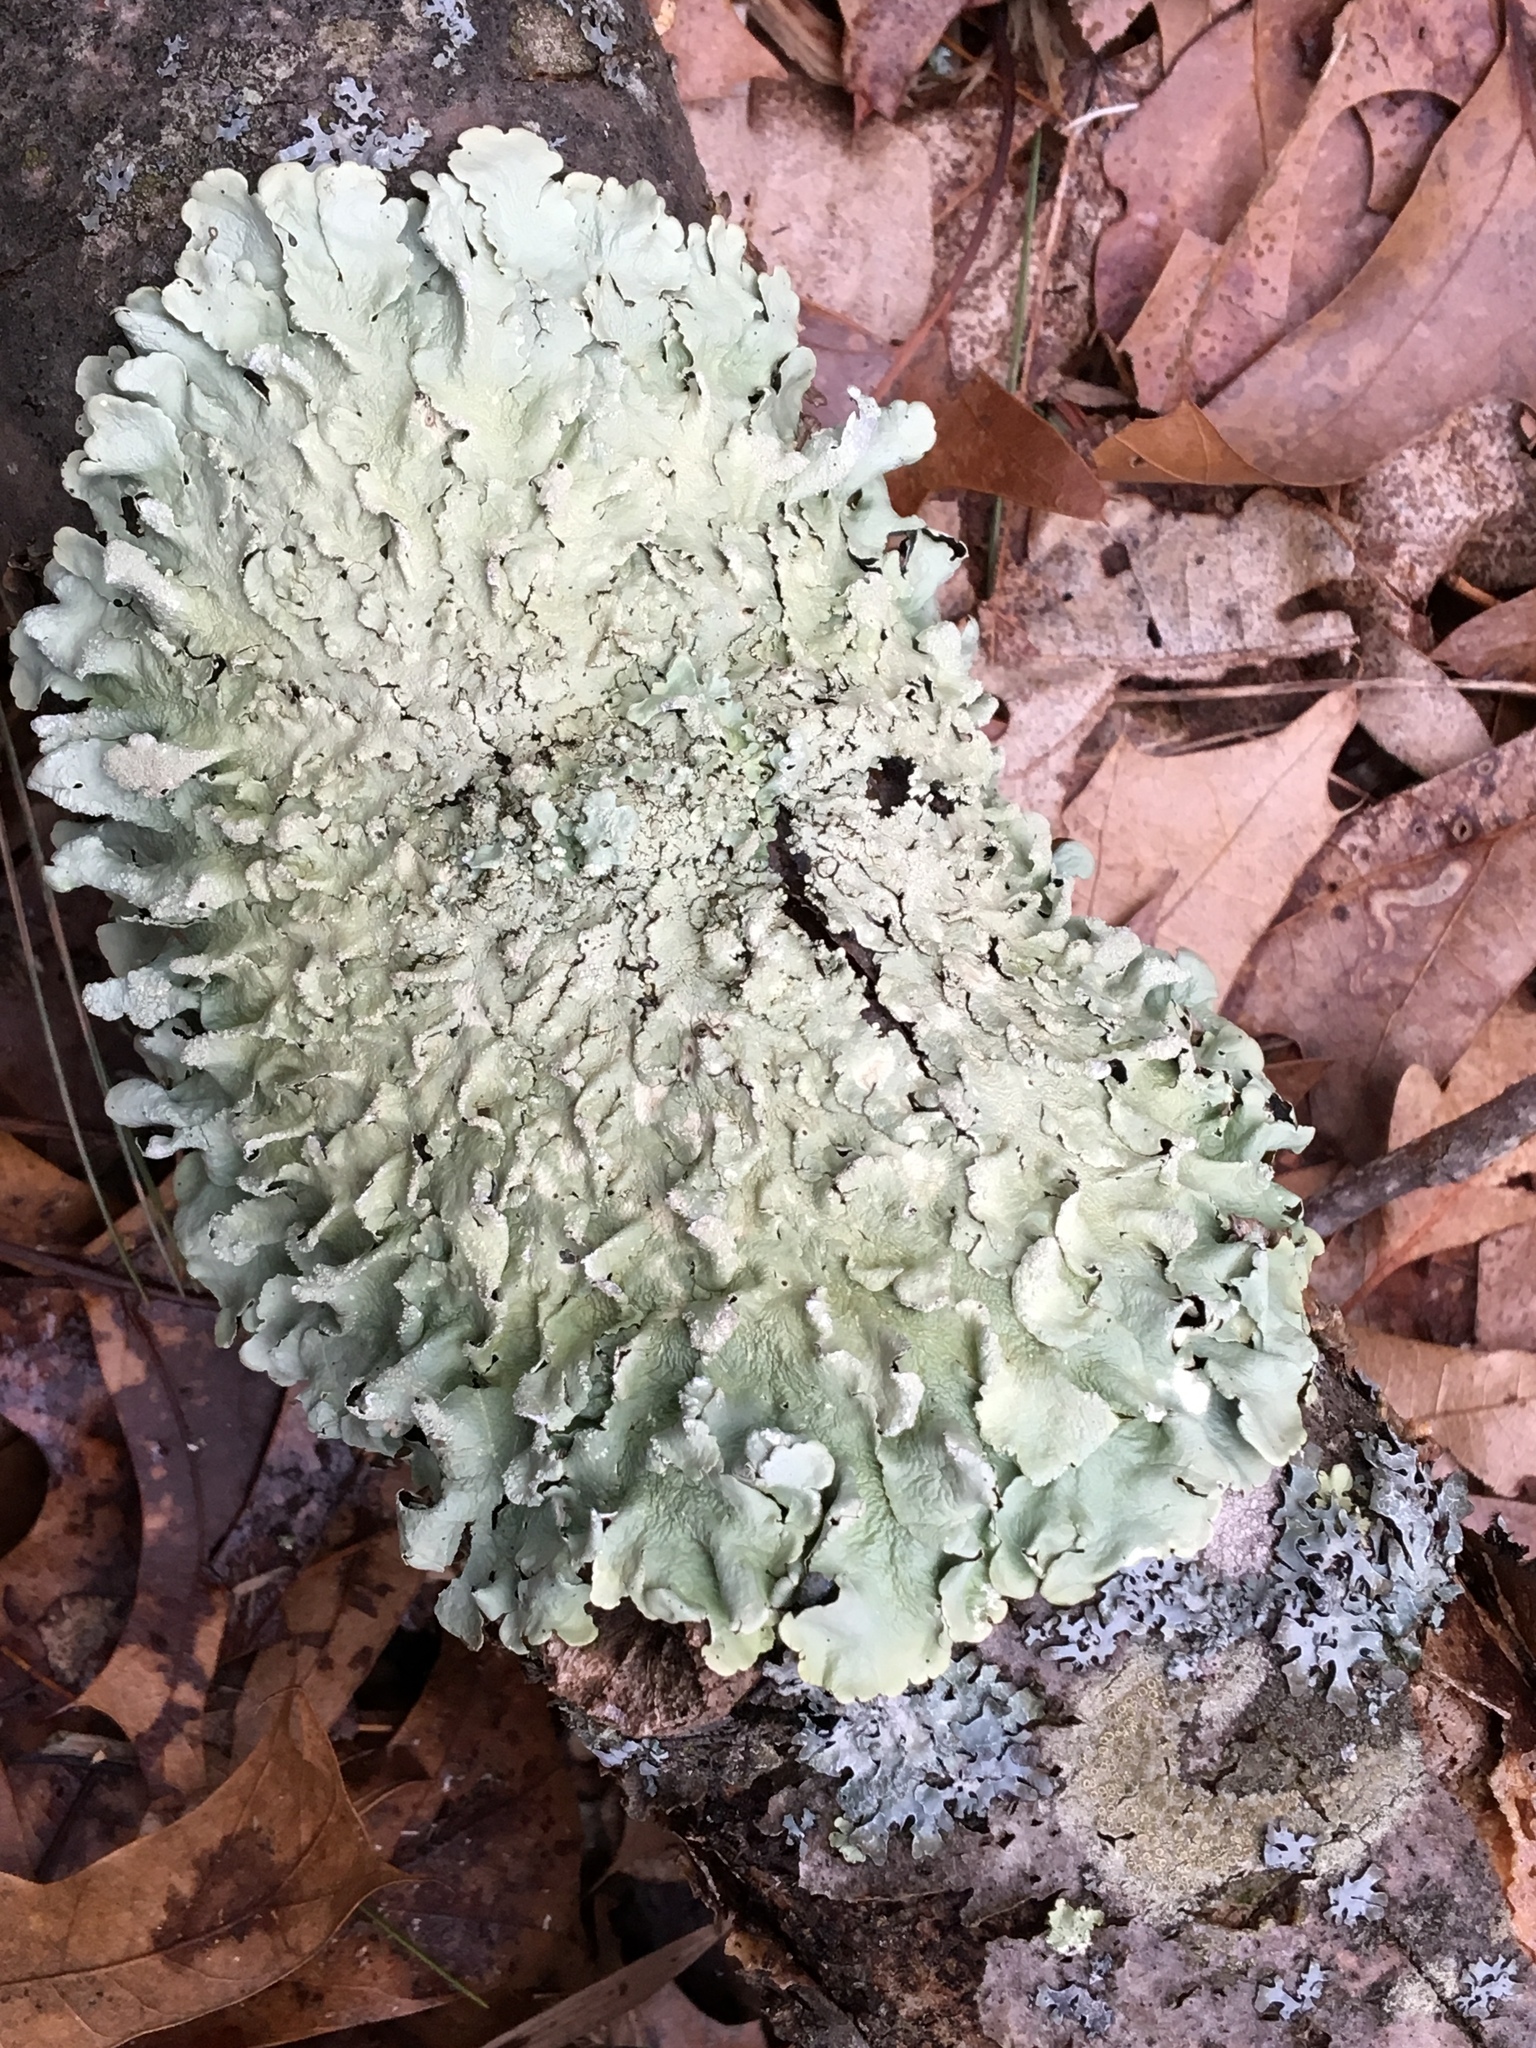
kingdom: Fungi
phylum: Ascomycota
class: Lecanoromycetes
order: Lecanorales
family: Parmeliaceae
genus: Flavoparmelia
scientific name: Flavoparmelia caperata
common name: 40-mile per hour lichen
